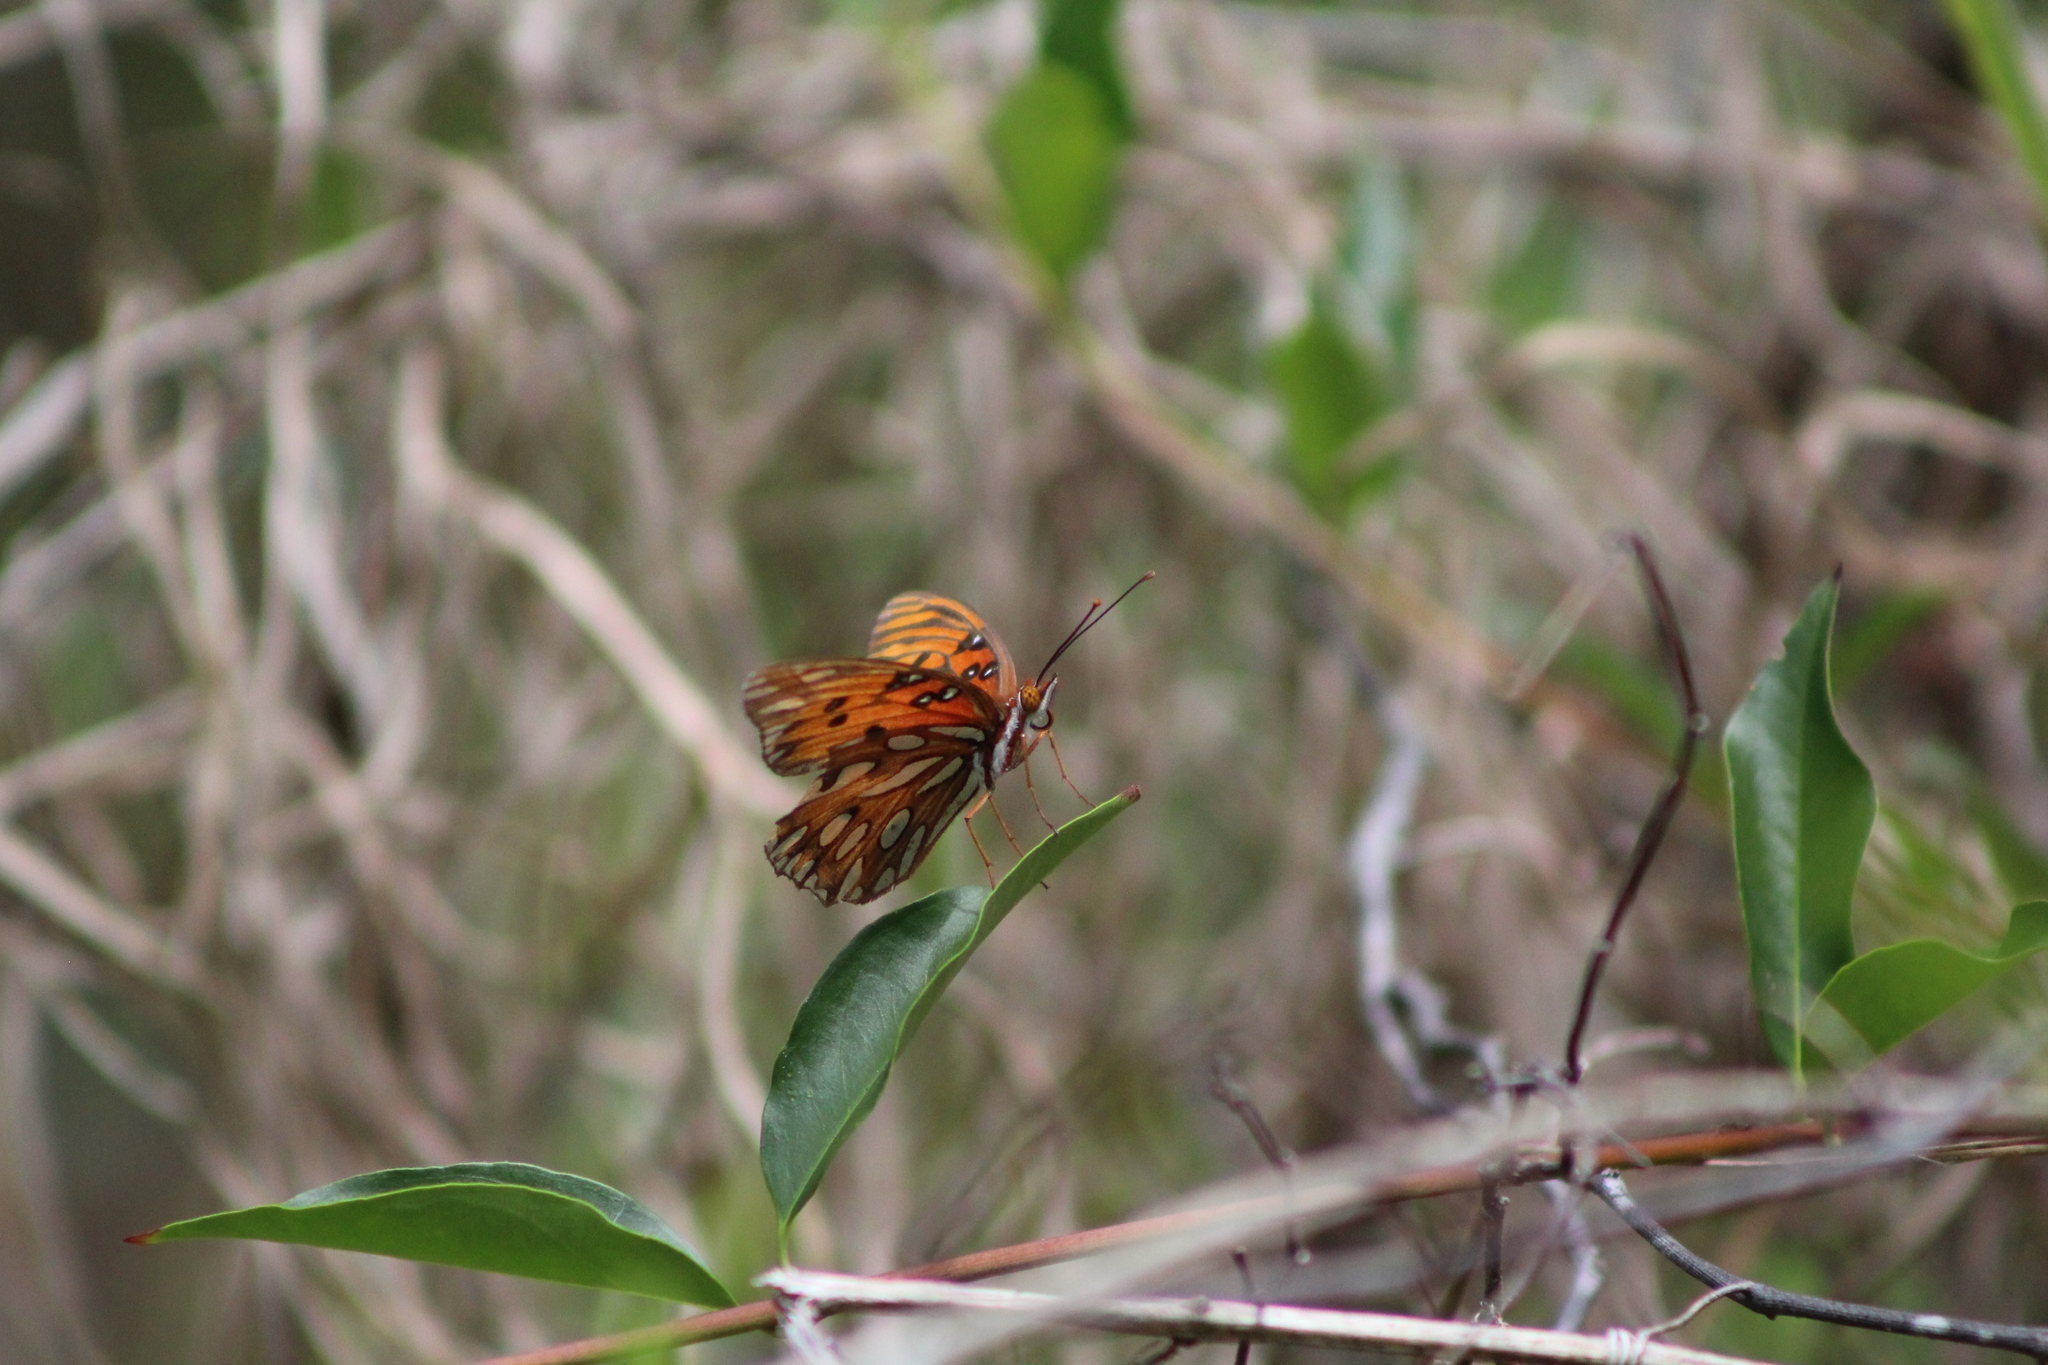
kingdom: Animalia
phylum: Arthropoda
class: Insecta
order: Lepidoptera
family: Nymphalidae
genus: Dione
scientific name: Dione vanillae
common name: Gulf fritillary
